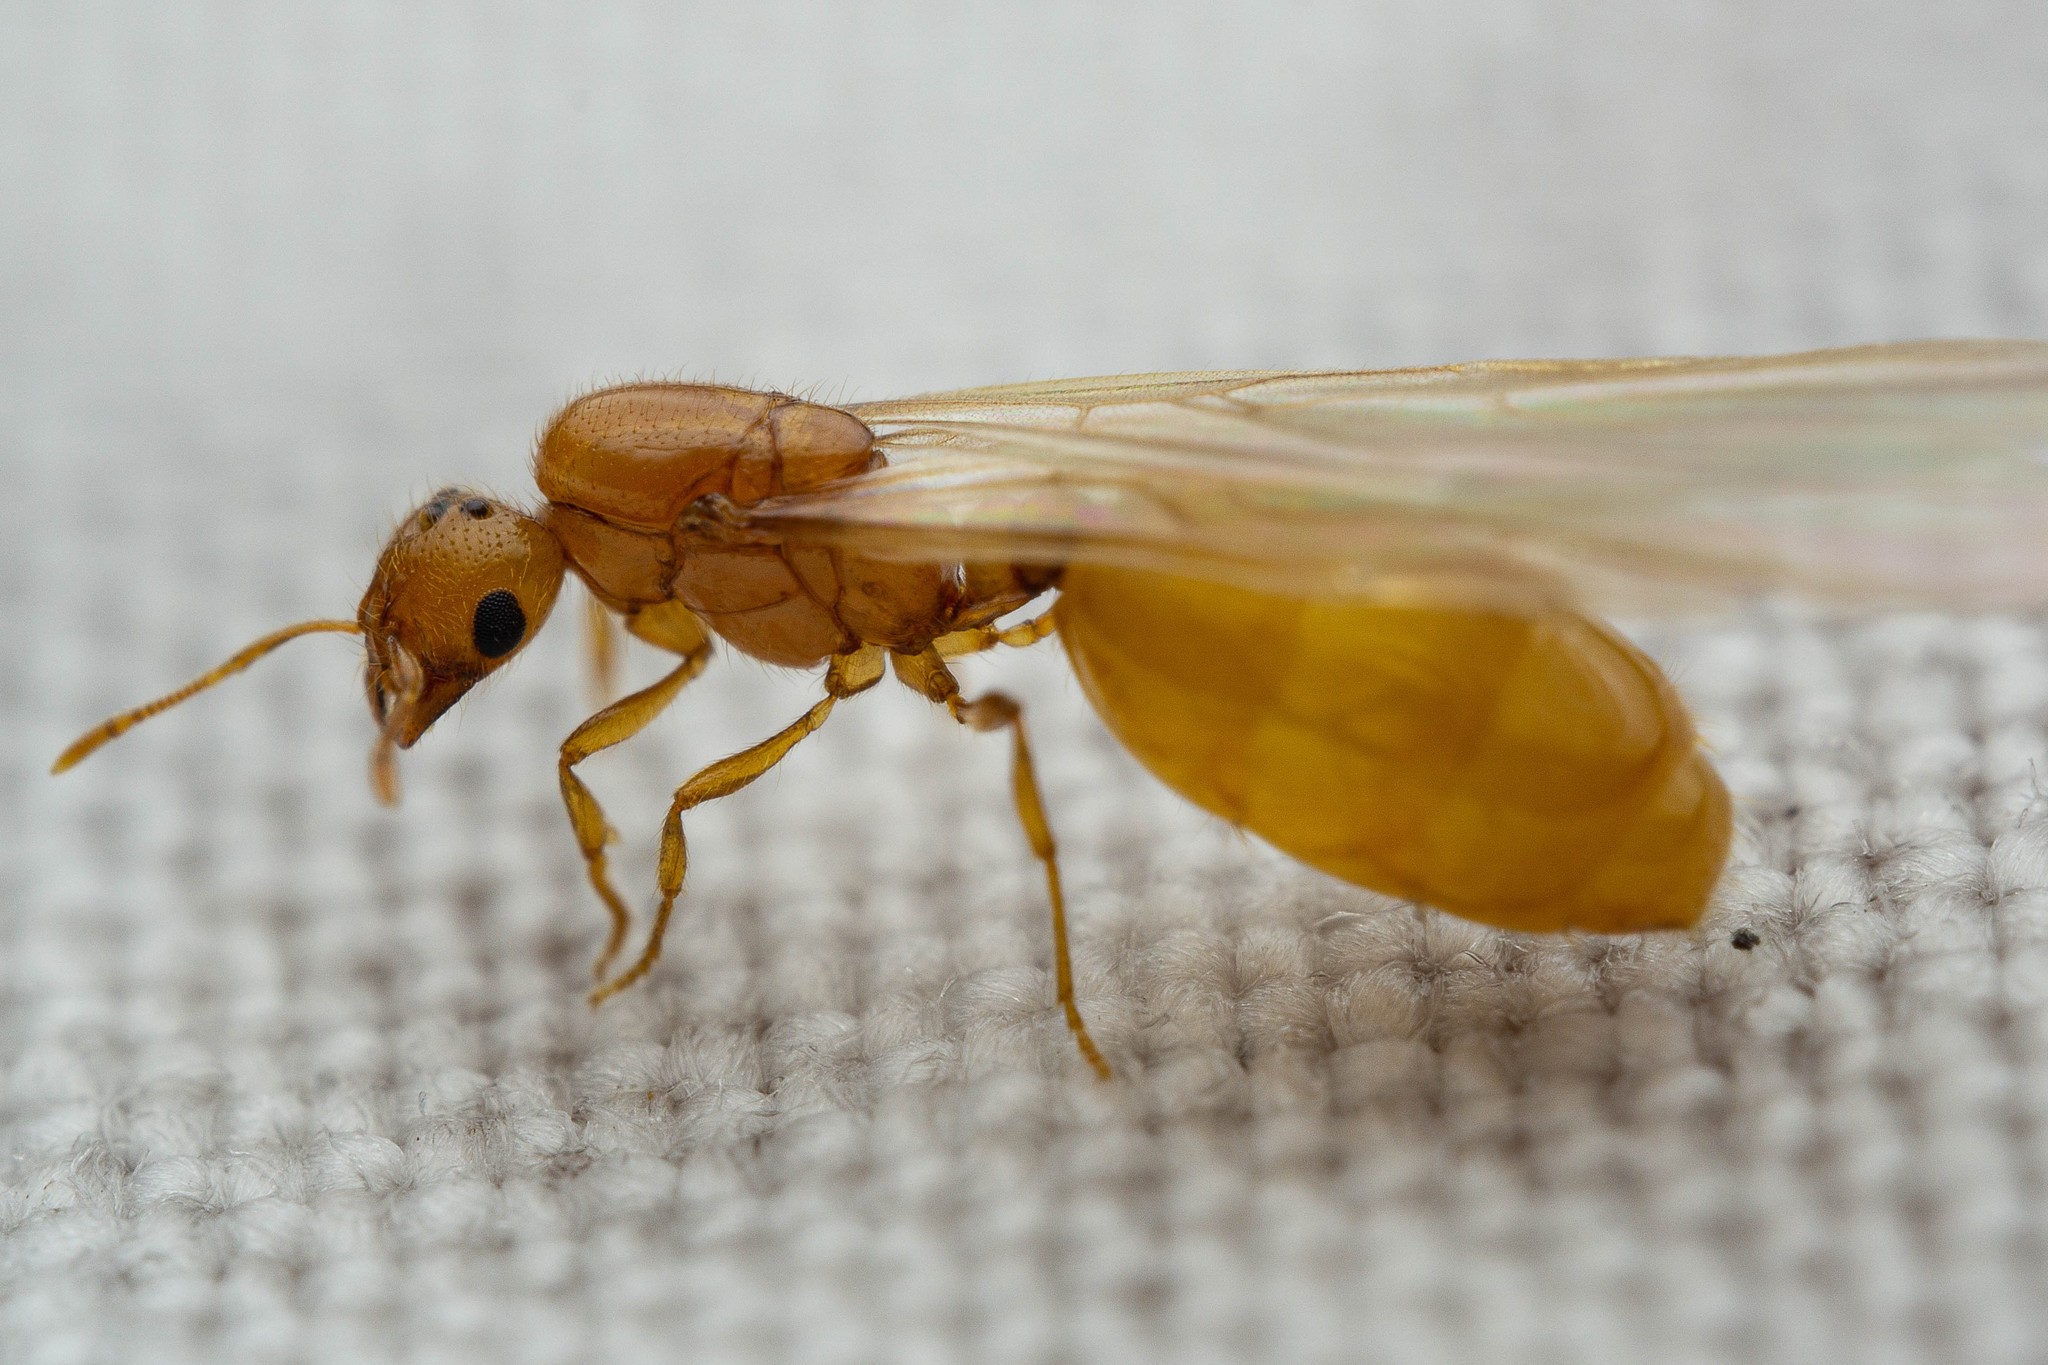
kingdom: Animalia
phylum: Arthropoda
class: Insecta
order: Hymenoptera
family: Formicidae
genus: Solenopsis
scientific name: Solenopsis krockowi
